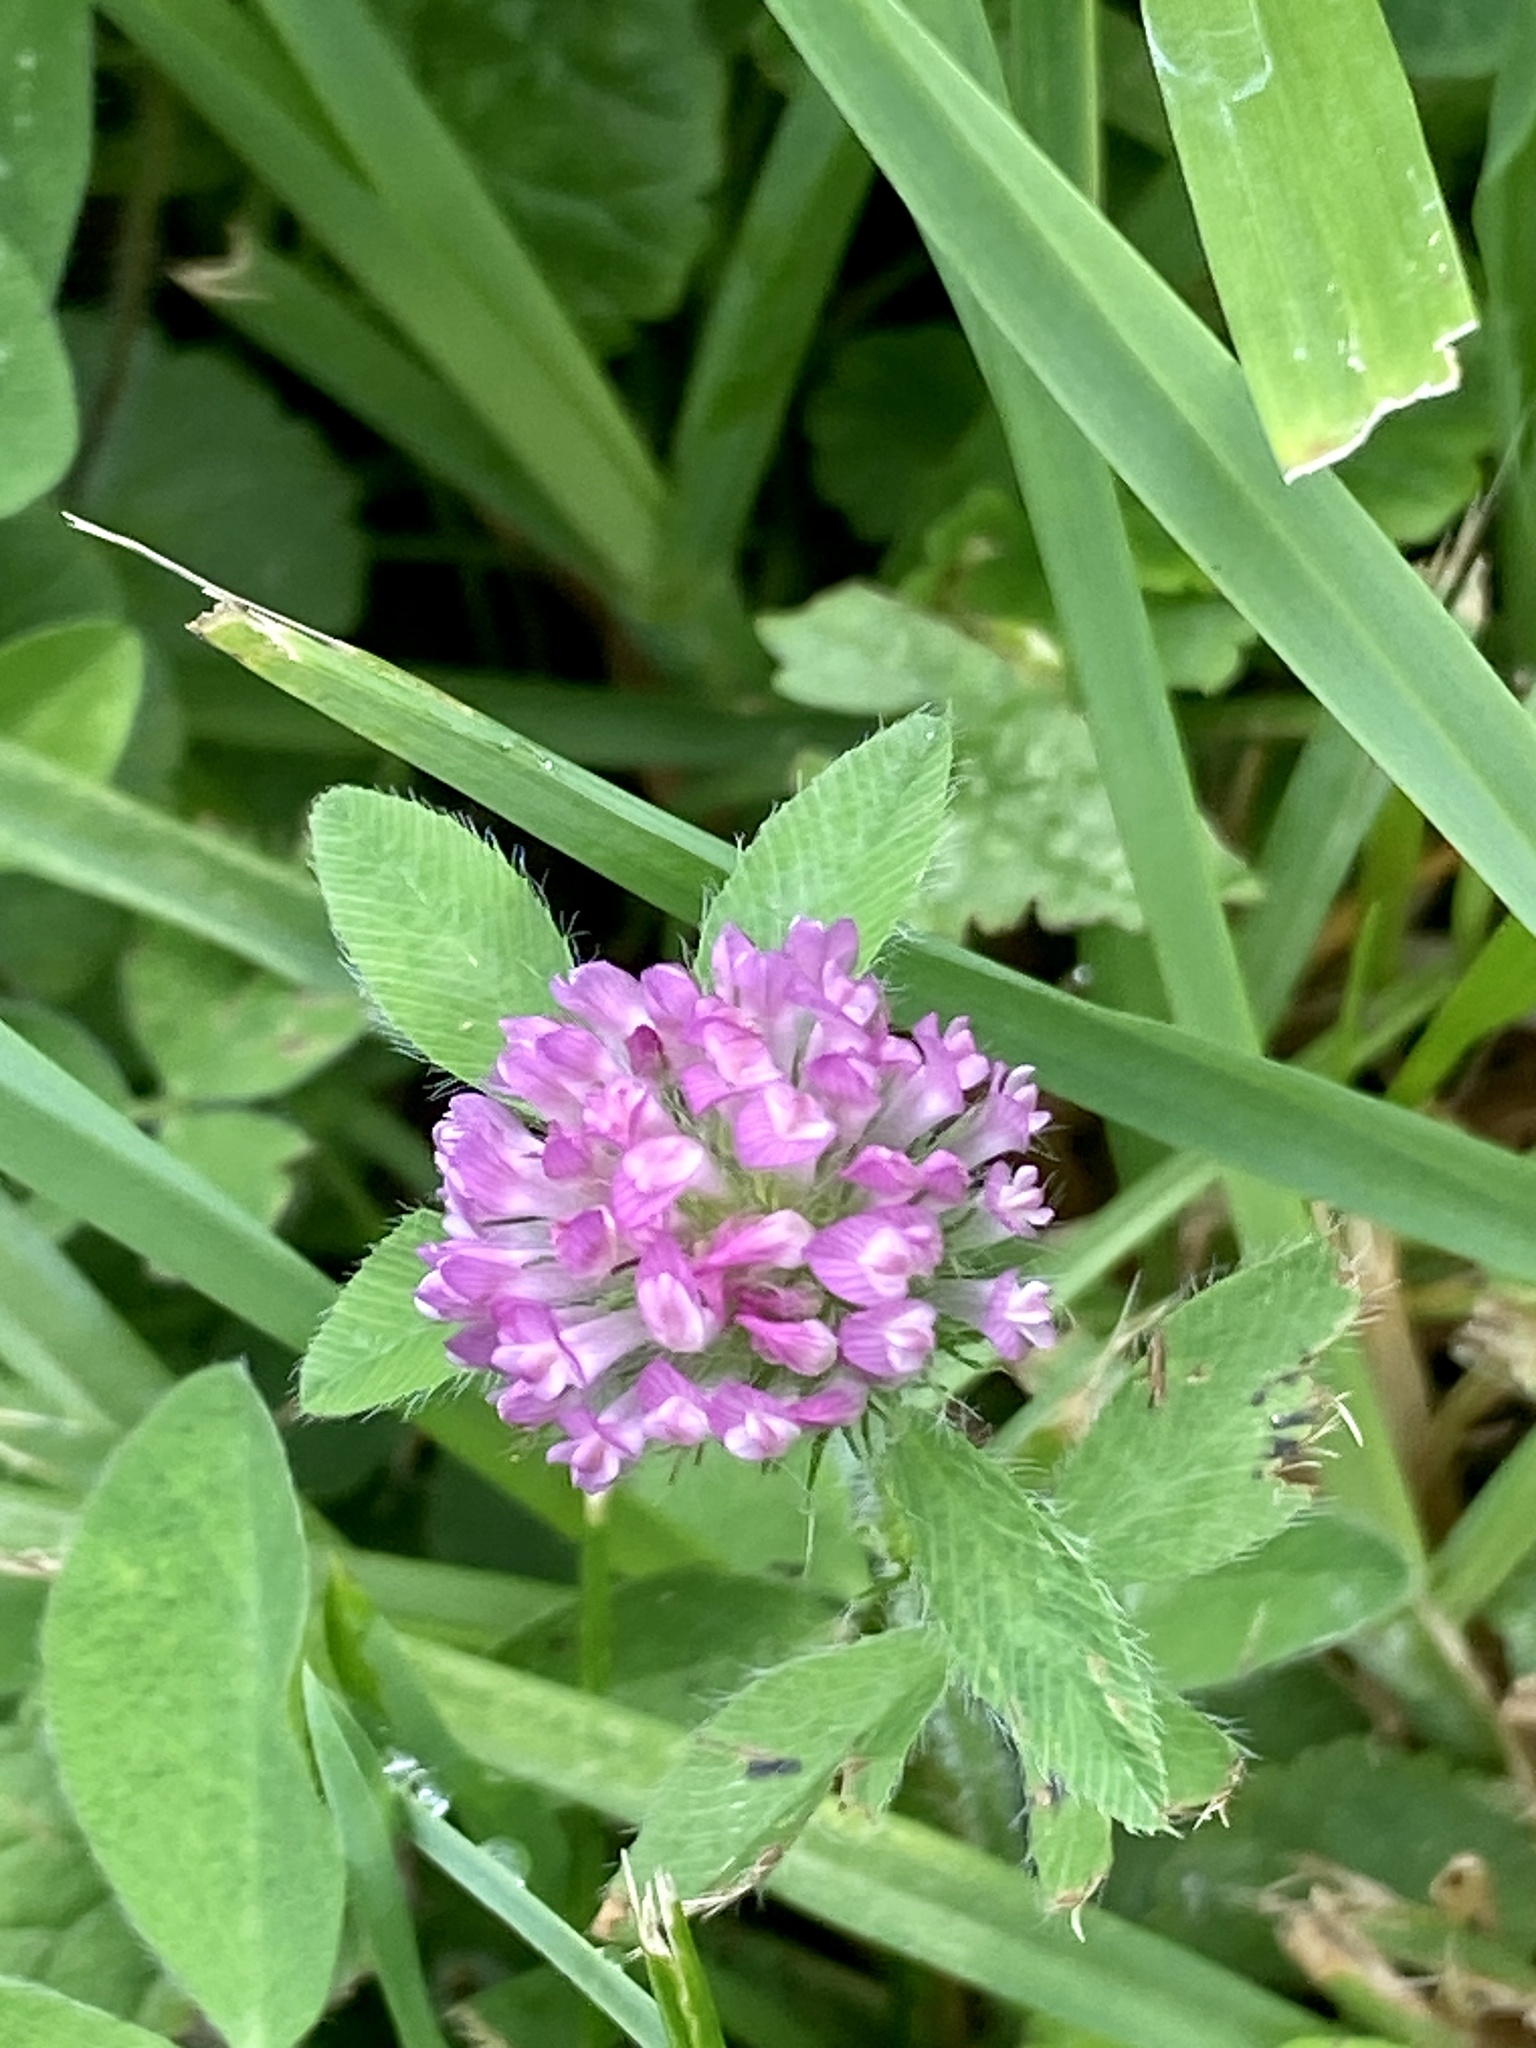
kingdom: Plantae
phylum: Tracheophyta
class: Magnoliopsida
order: Fabales
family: Fabaceae
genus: Trifolium
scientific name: Trifolium pratense
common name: Red clover
